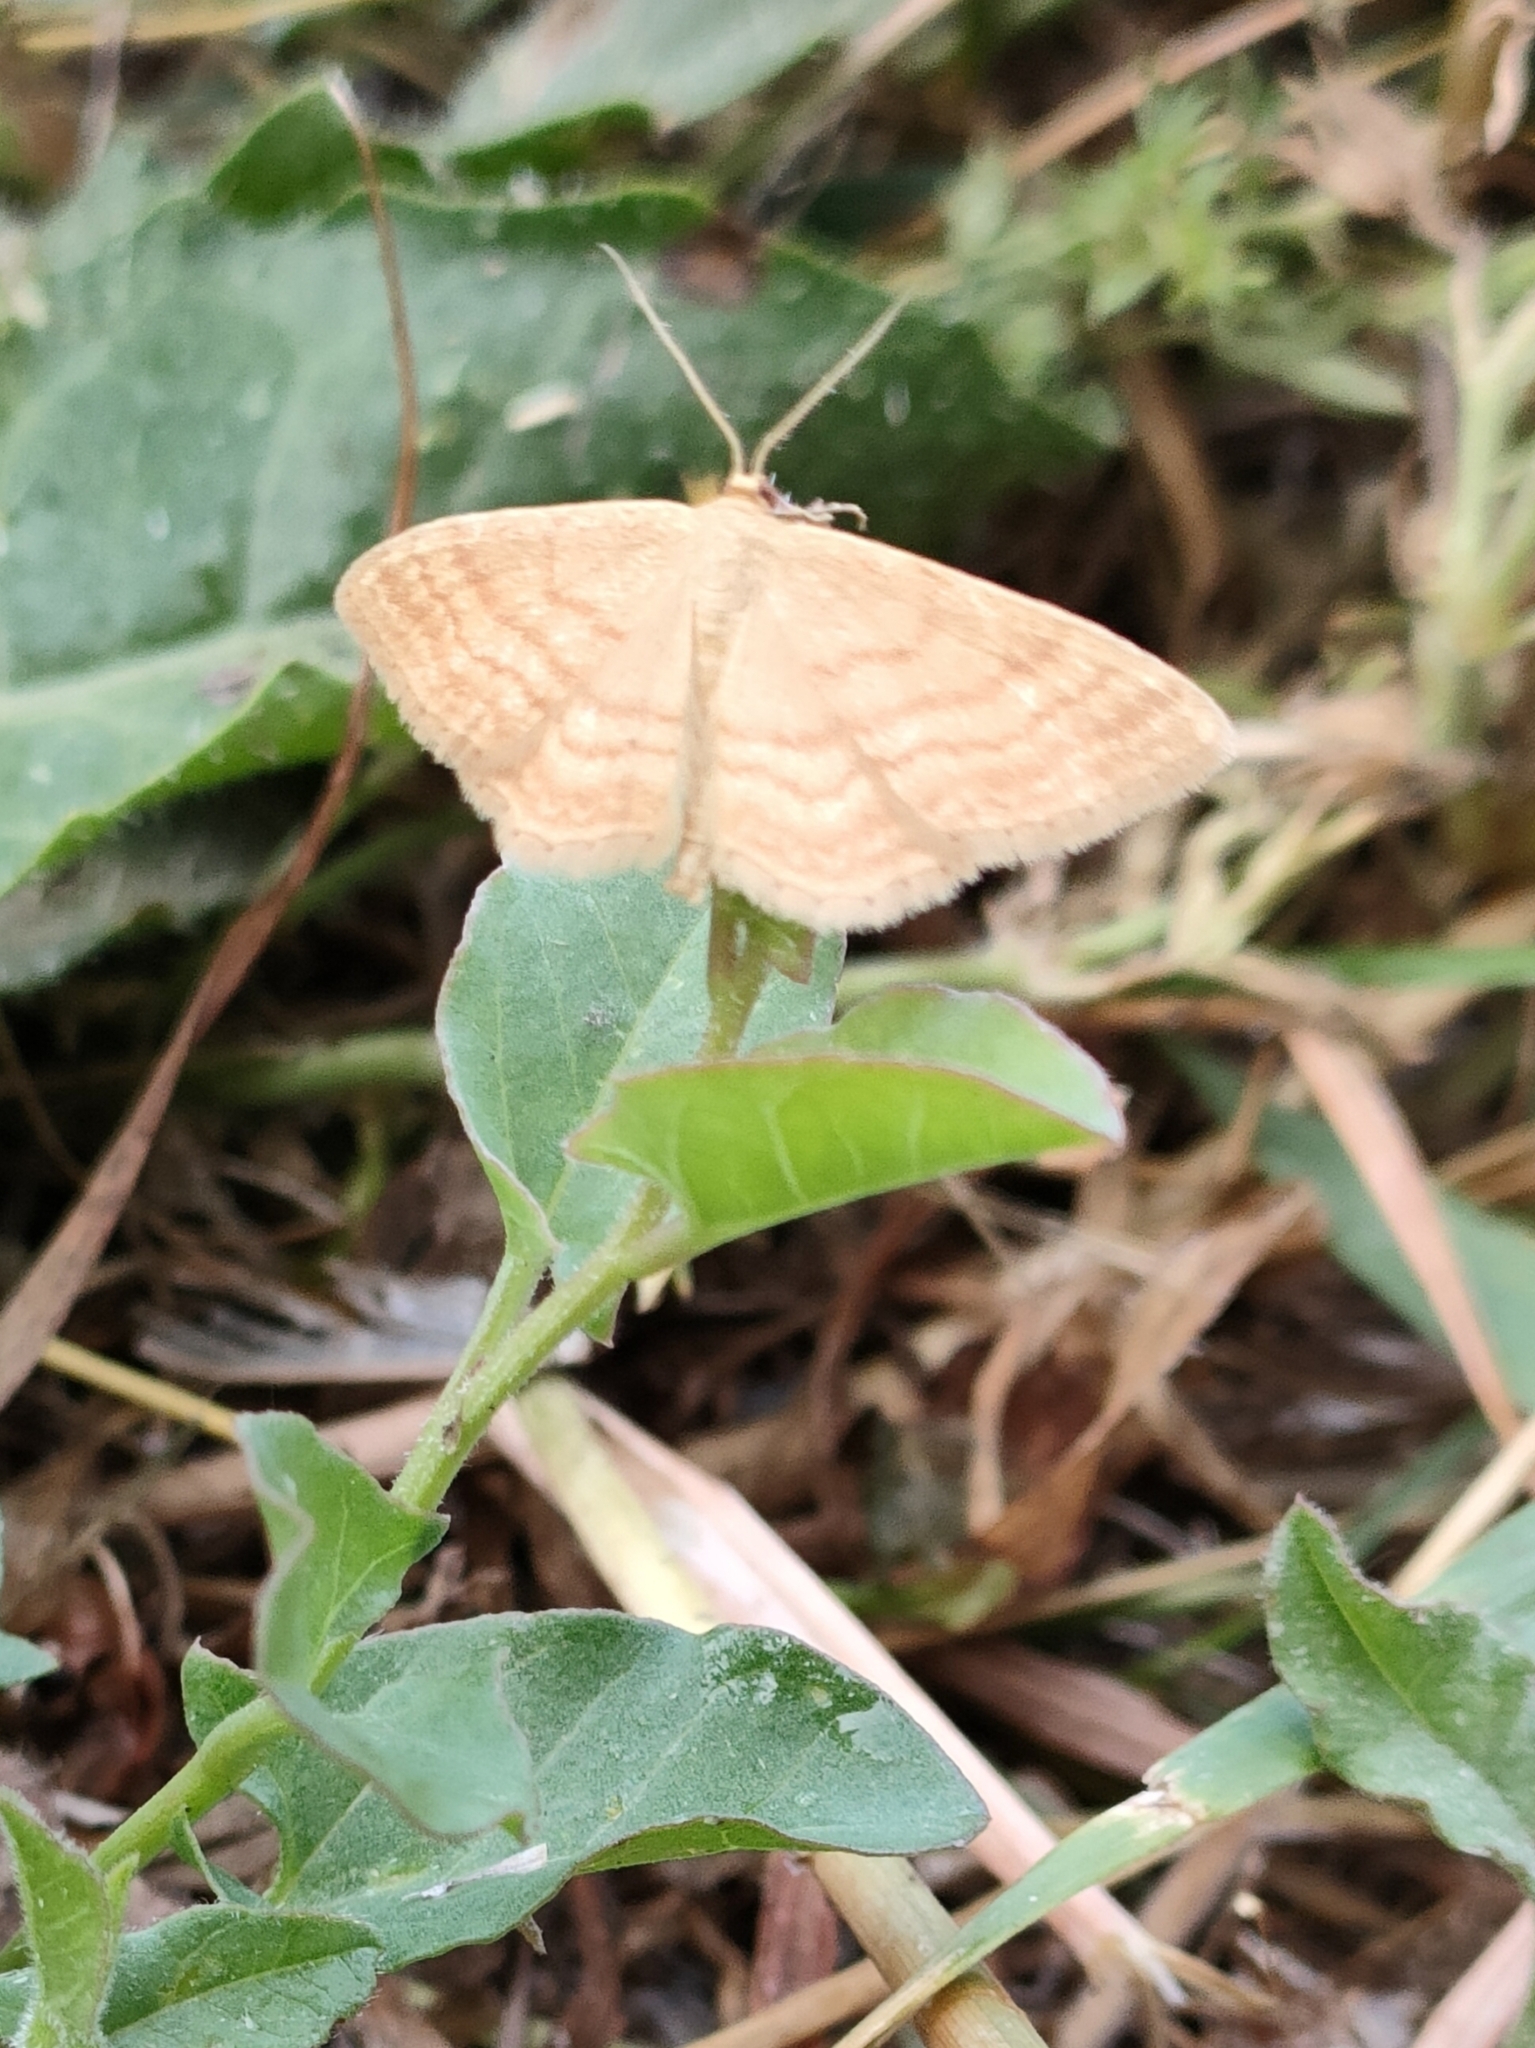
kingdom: Animalia
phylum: Arthropoda
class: Insecta
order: Lepidoptera
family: Geometridae
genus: Idaea
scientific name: Idaea ochrata
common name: Bright wave
